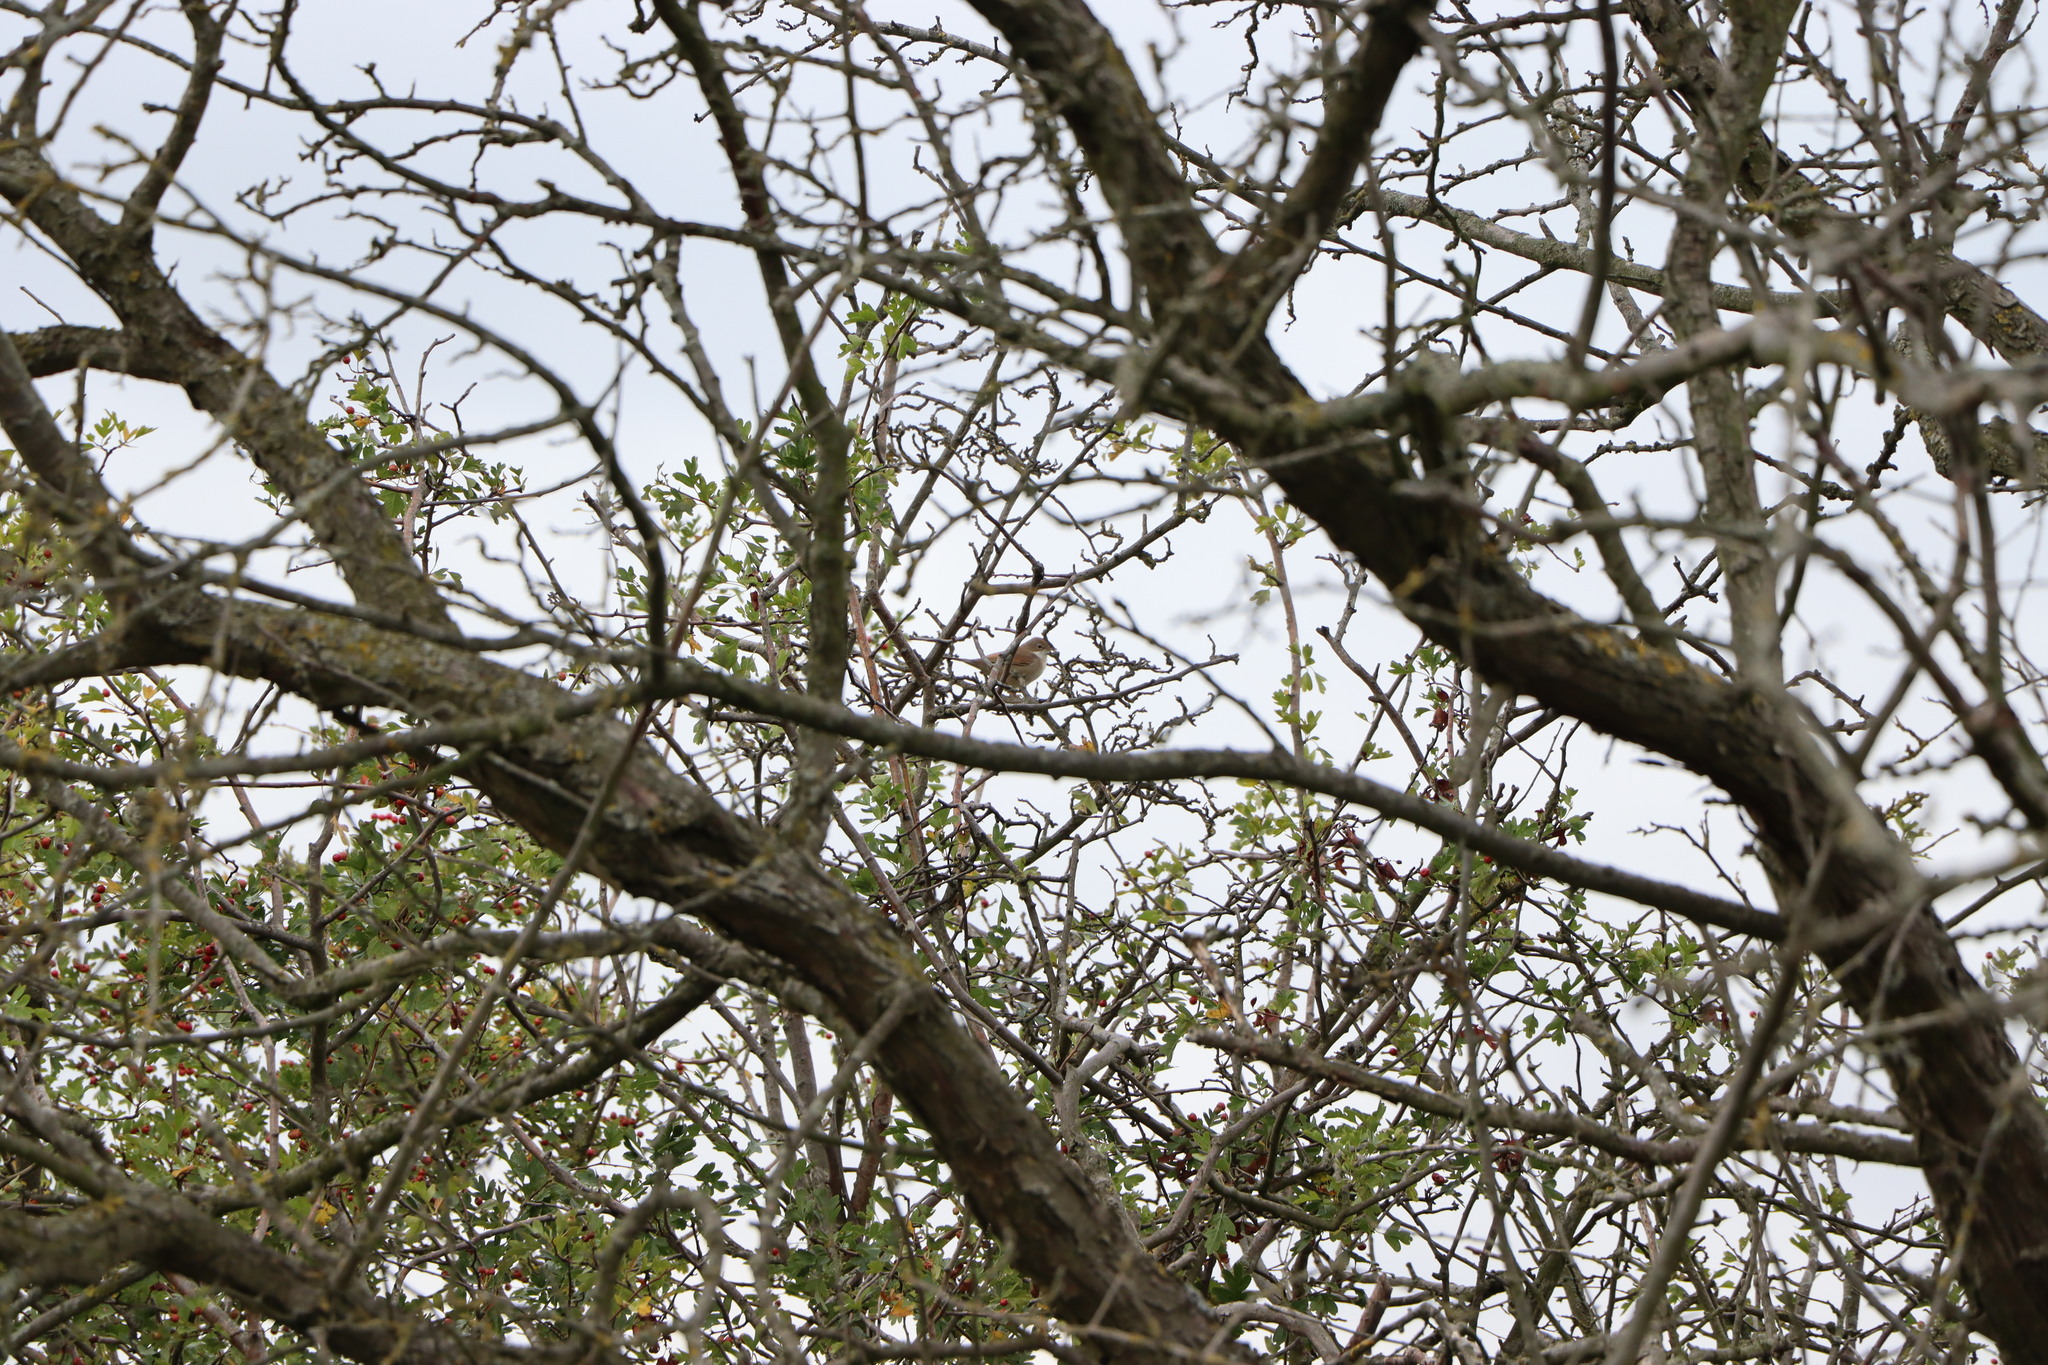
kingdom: Animalia
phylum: Chordata
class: Aves
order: Passeriformes
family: Sylviidae
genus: Sylvia
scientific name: Sylvia communis
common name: Common whitethroat
